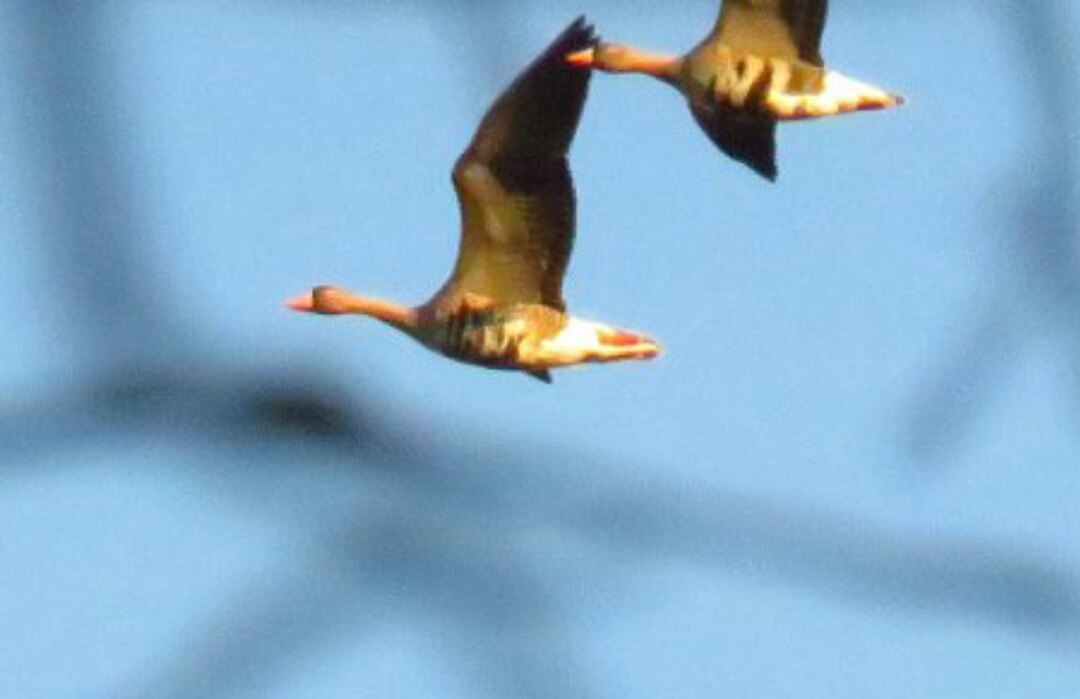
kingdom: Animalia
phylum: Chordata
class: Aves
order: Anseriformes
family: Anatidae
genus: Anser
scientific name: Anser albifrons
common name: Greater white-fronted goose
